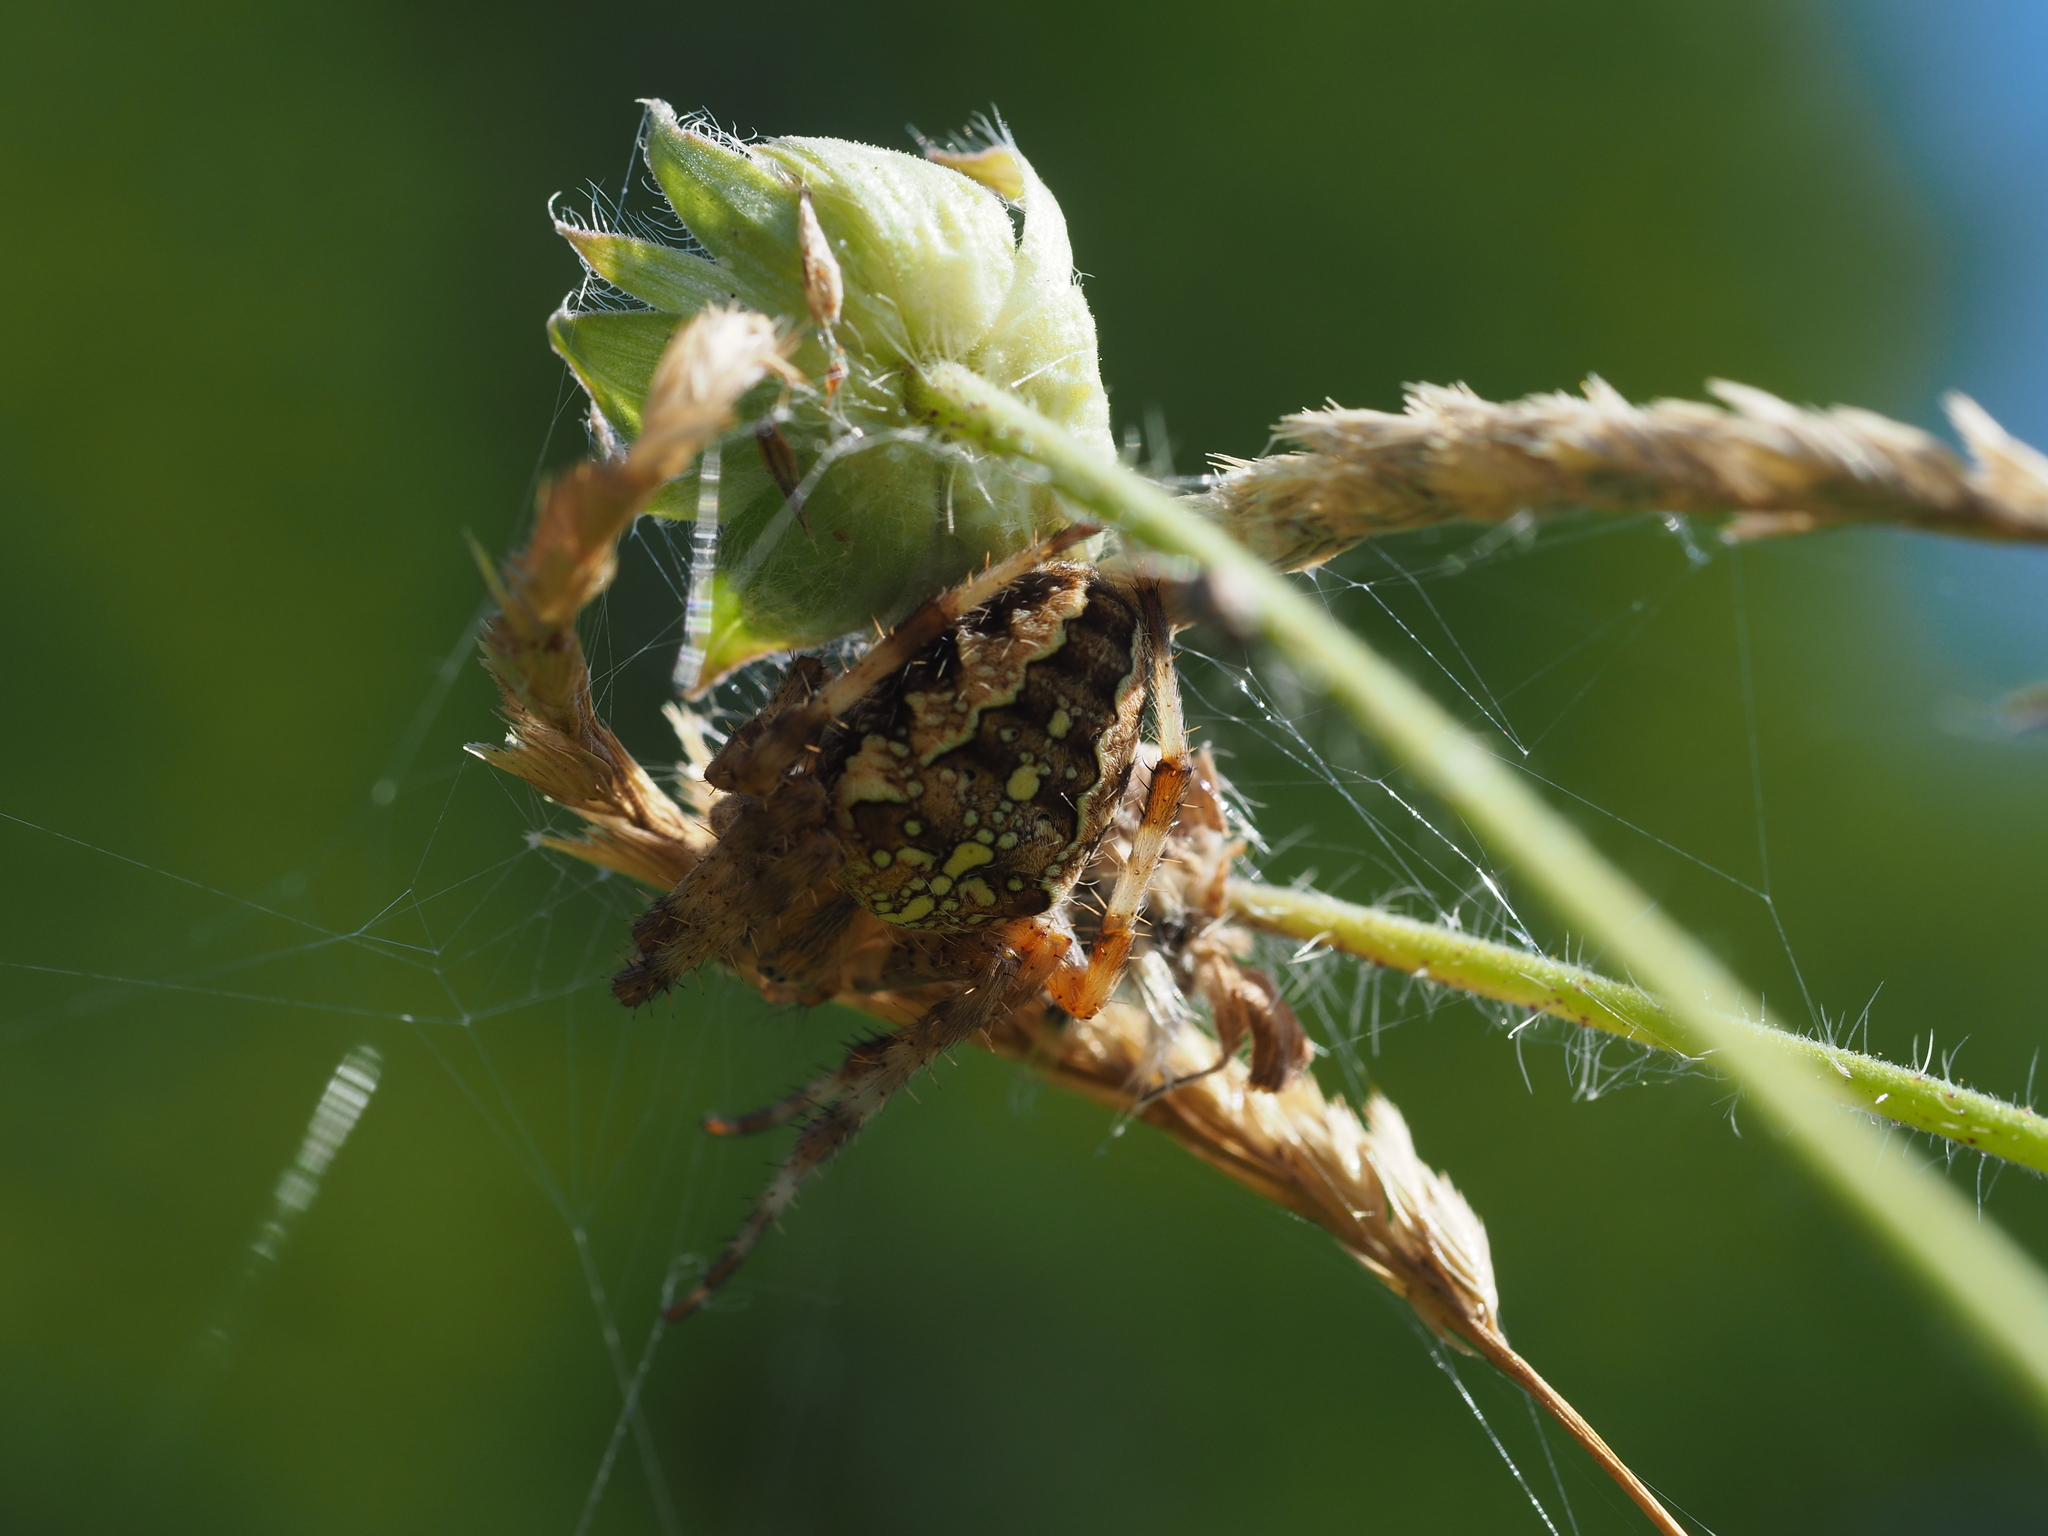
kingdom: Animalia
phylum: Arthropoda
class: Arachnida
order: Araneae
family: Araneidae
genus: Araneus
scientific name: Araneus diadematus
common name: Cross orbweaver
